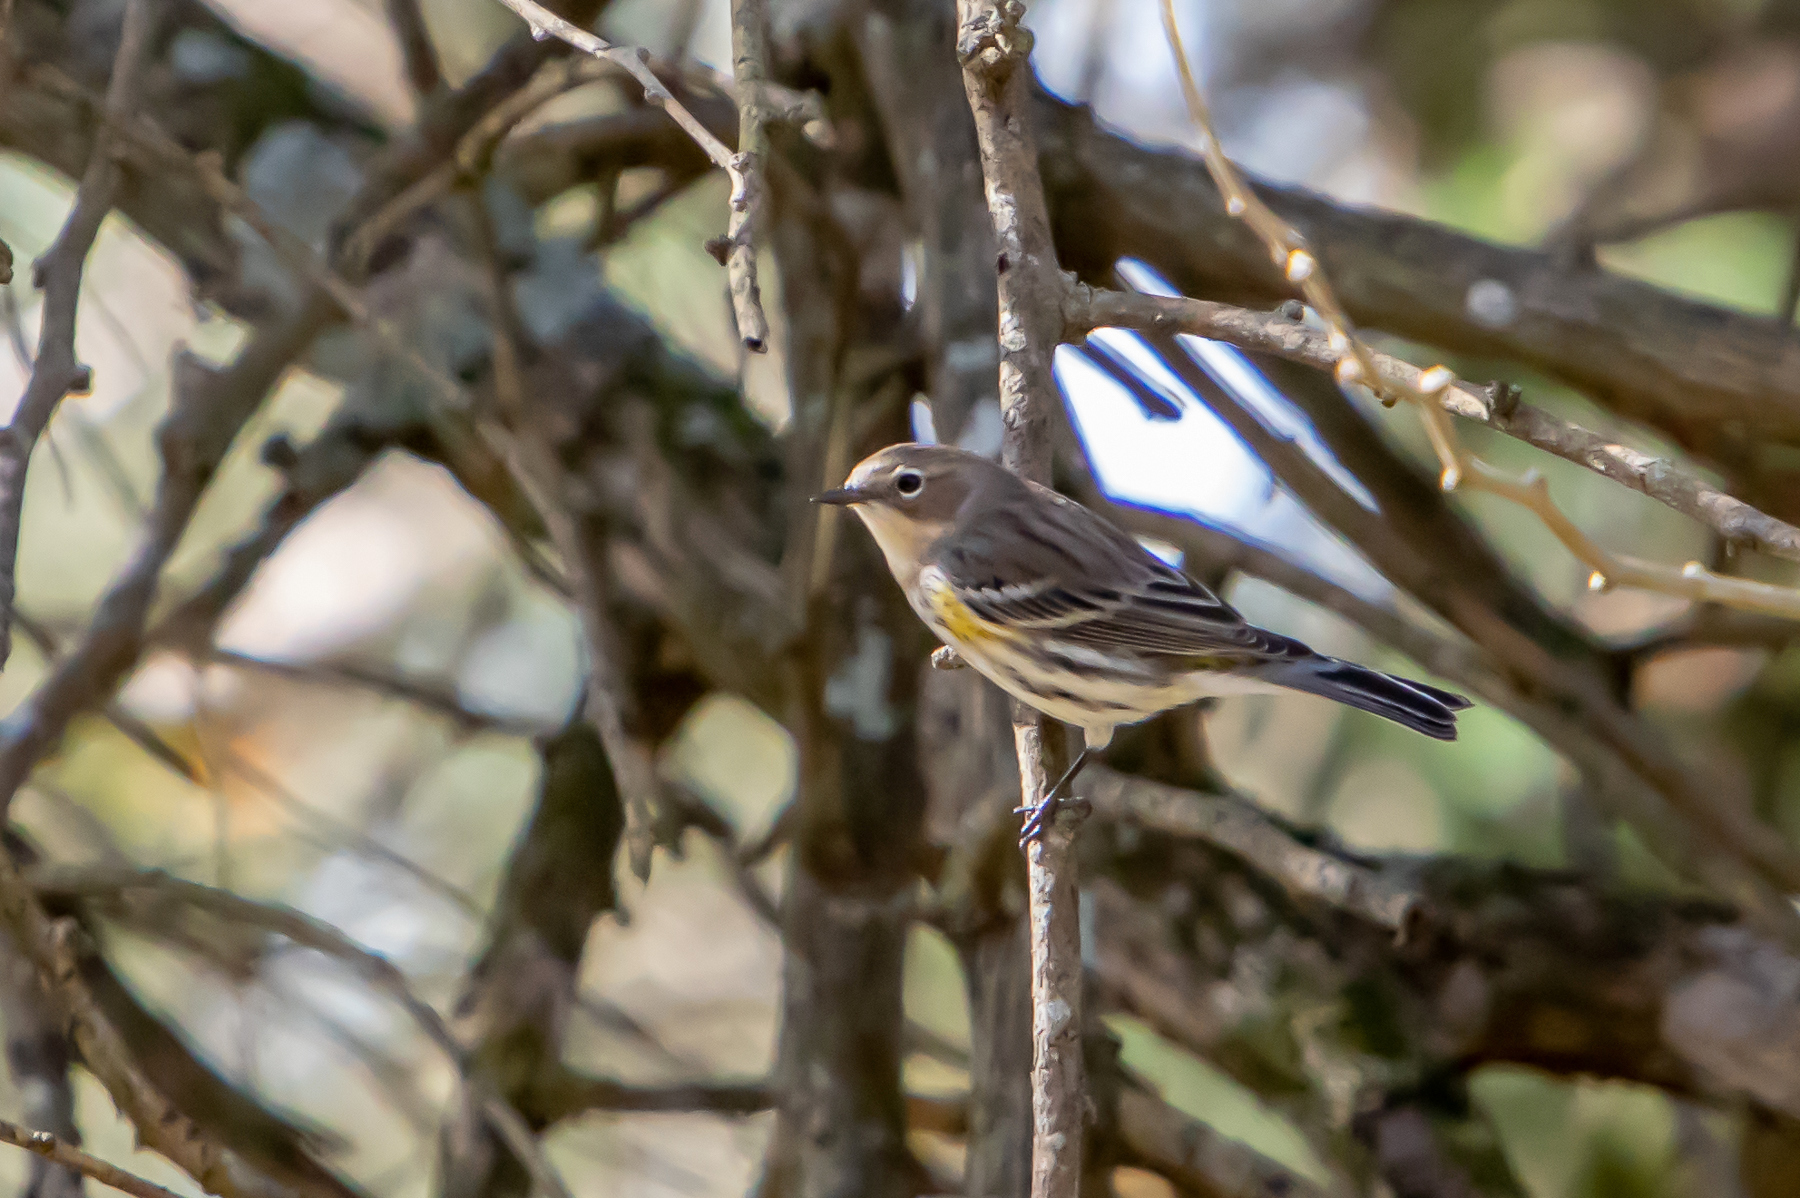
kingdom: Animalia
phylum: Chordata
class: Aves
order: Passeriformes
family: Parulidae
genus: Setophaga
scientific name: Setophaga coronata
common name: Myrtle warbler
